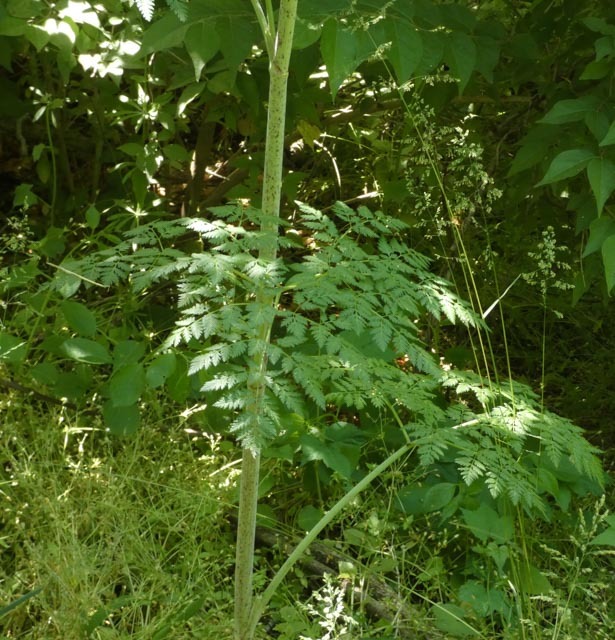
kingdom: Plantae
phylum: Tracheophyta
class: Magnoliopsida
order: Apiales
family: Apiaceae
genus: Conium
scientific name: Conium maculatum
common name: Hemlock
